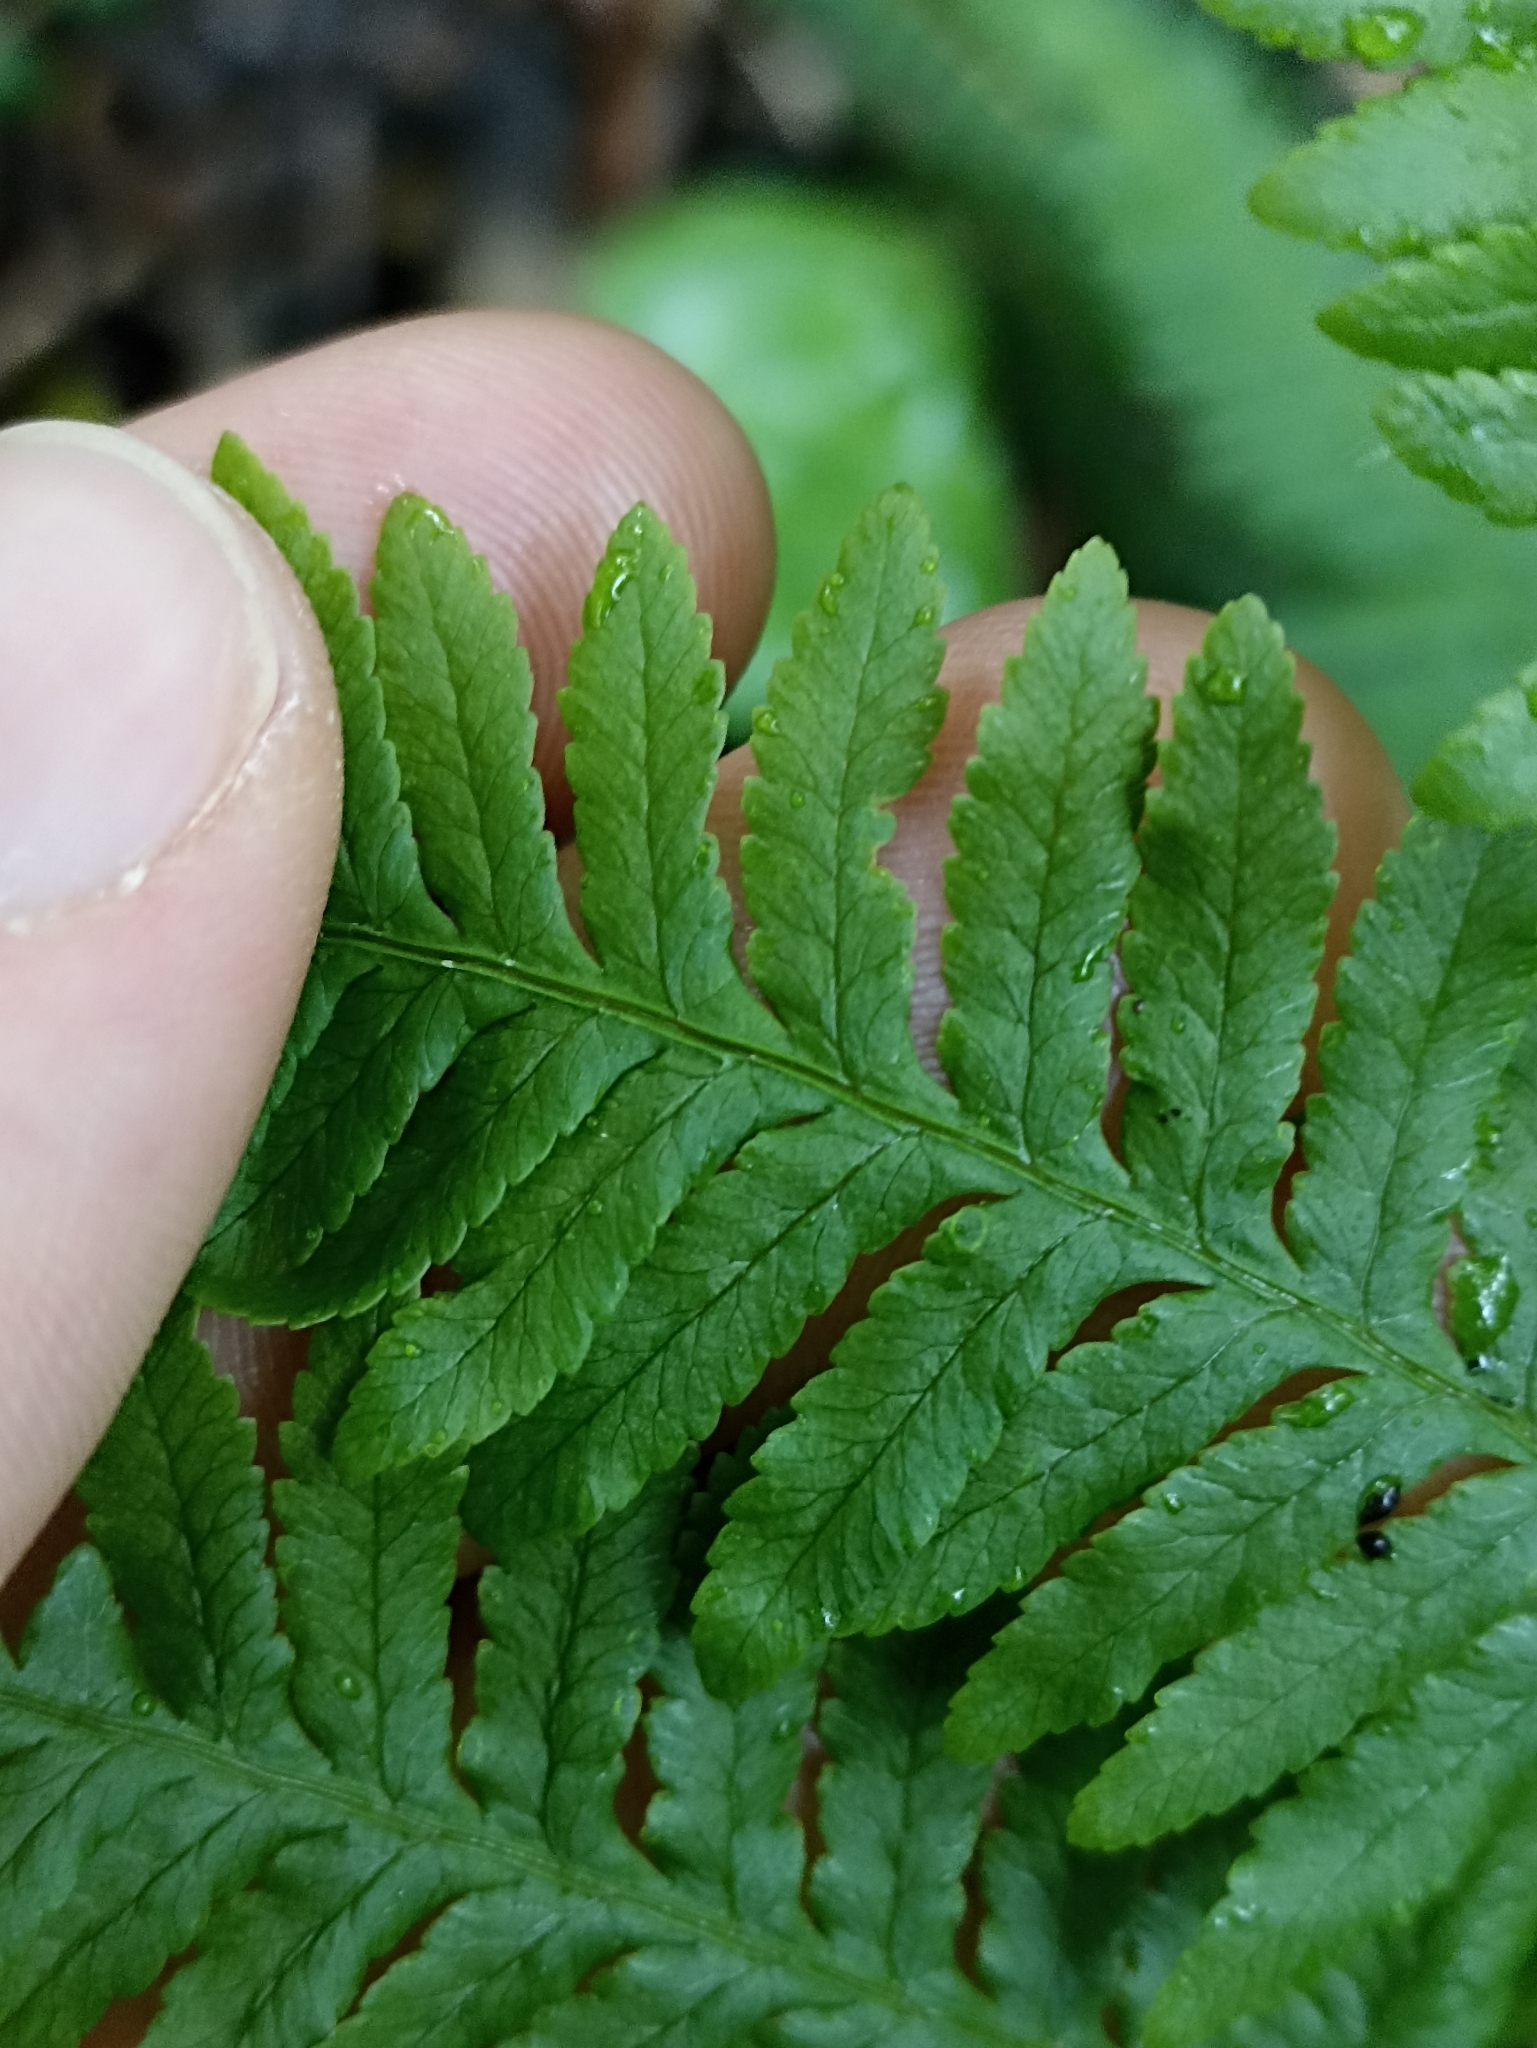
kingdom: Plantae
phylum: Tracheophyta
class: Polypodiopsida
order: Polypodiales
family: Pteridaceae
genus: Pteris
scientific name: Pteris tremula
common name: Australian brake
